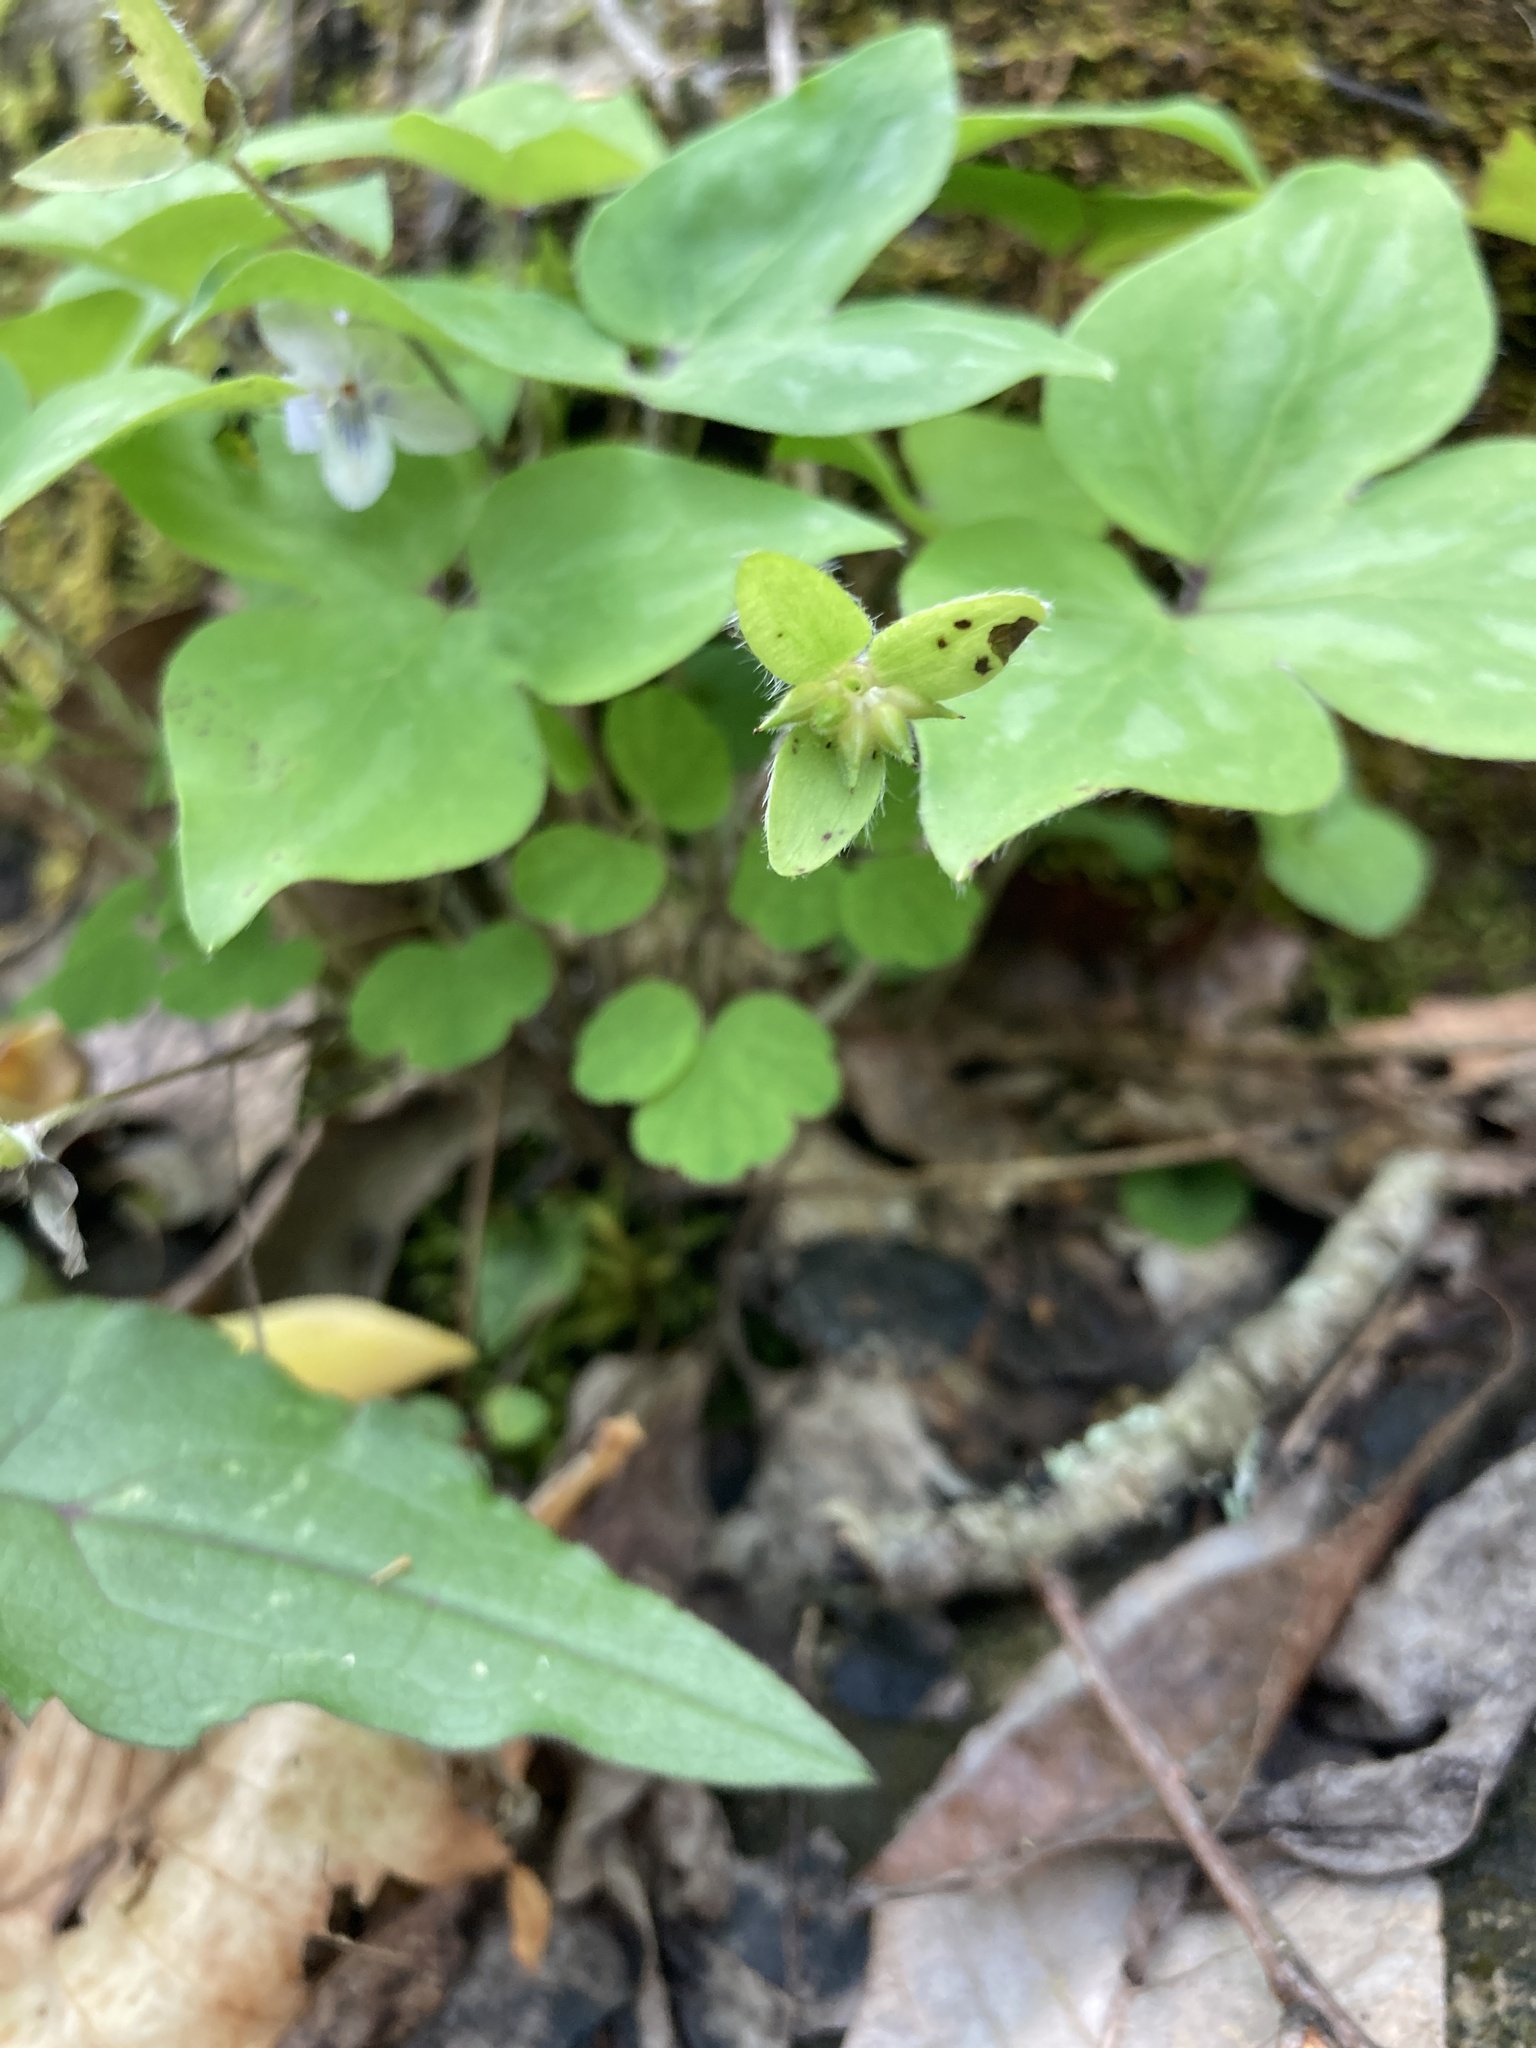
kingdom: Plantae
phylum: Tracheophyta
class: Magnoliopsida
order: Ranunculales
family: Ranunculaceae
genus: Hepatica
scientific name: Hepatica acutiloba
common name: Sharp-lobed hepatica
